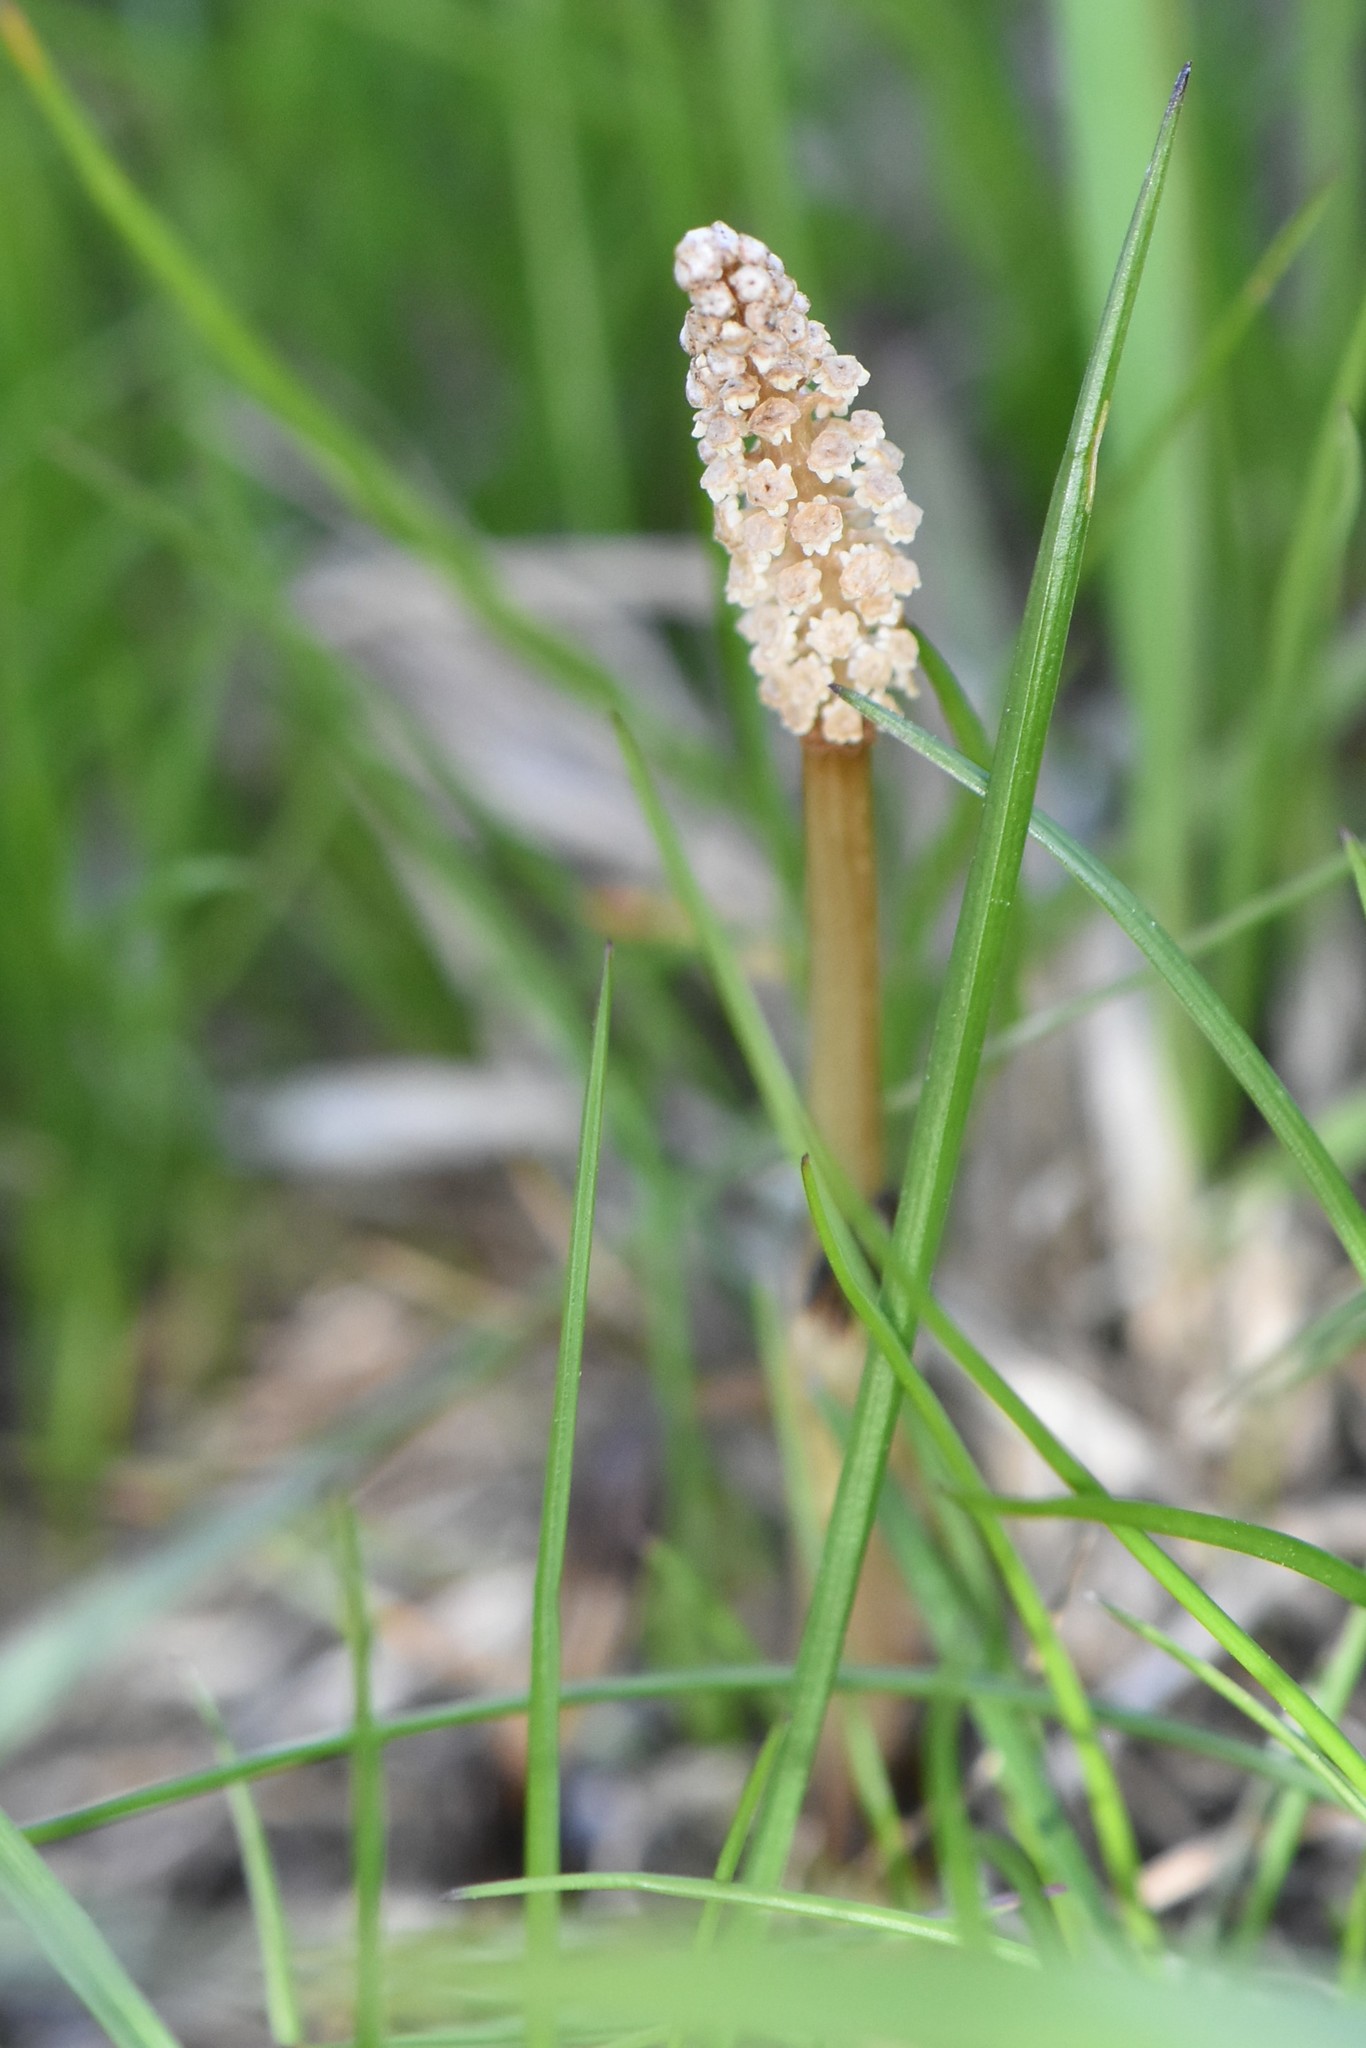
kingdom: Plantae
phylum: Tracheophyta
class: Polypodiopsida
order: Equisetales
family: Equisetaceae
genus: Equisetum
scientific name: Equisetum arvense
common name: Field horsetail
